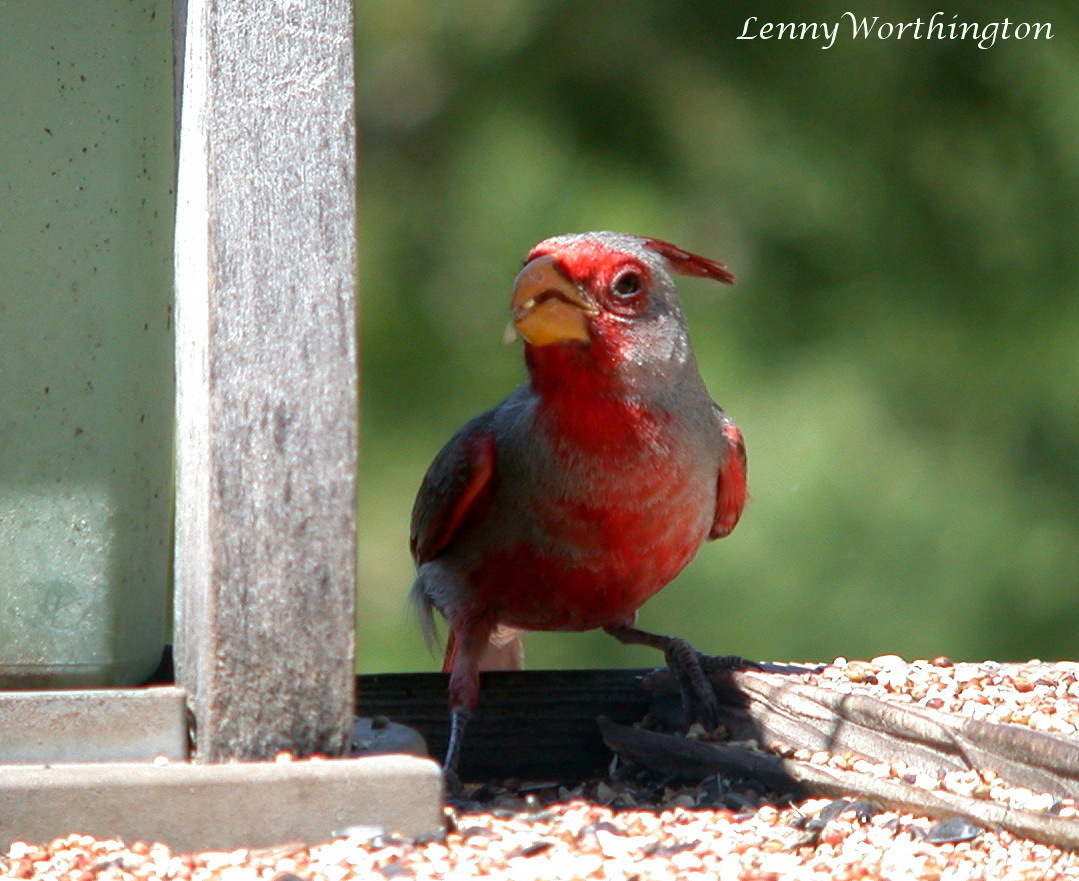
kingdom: Animalia
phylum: Chordata
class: Aves
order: Passeriformes
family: Cardinalidae
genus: Cardinalis
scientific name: Cardinalis sinuatus
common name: Pyrrhuloxia
